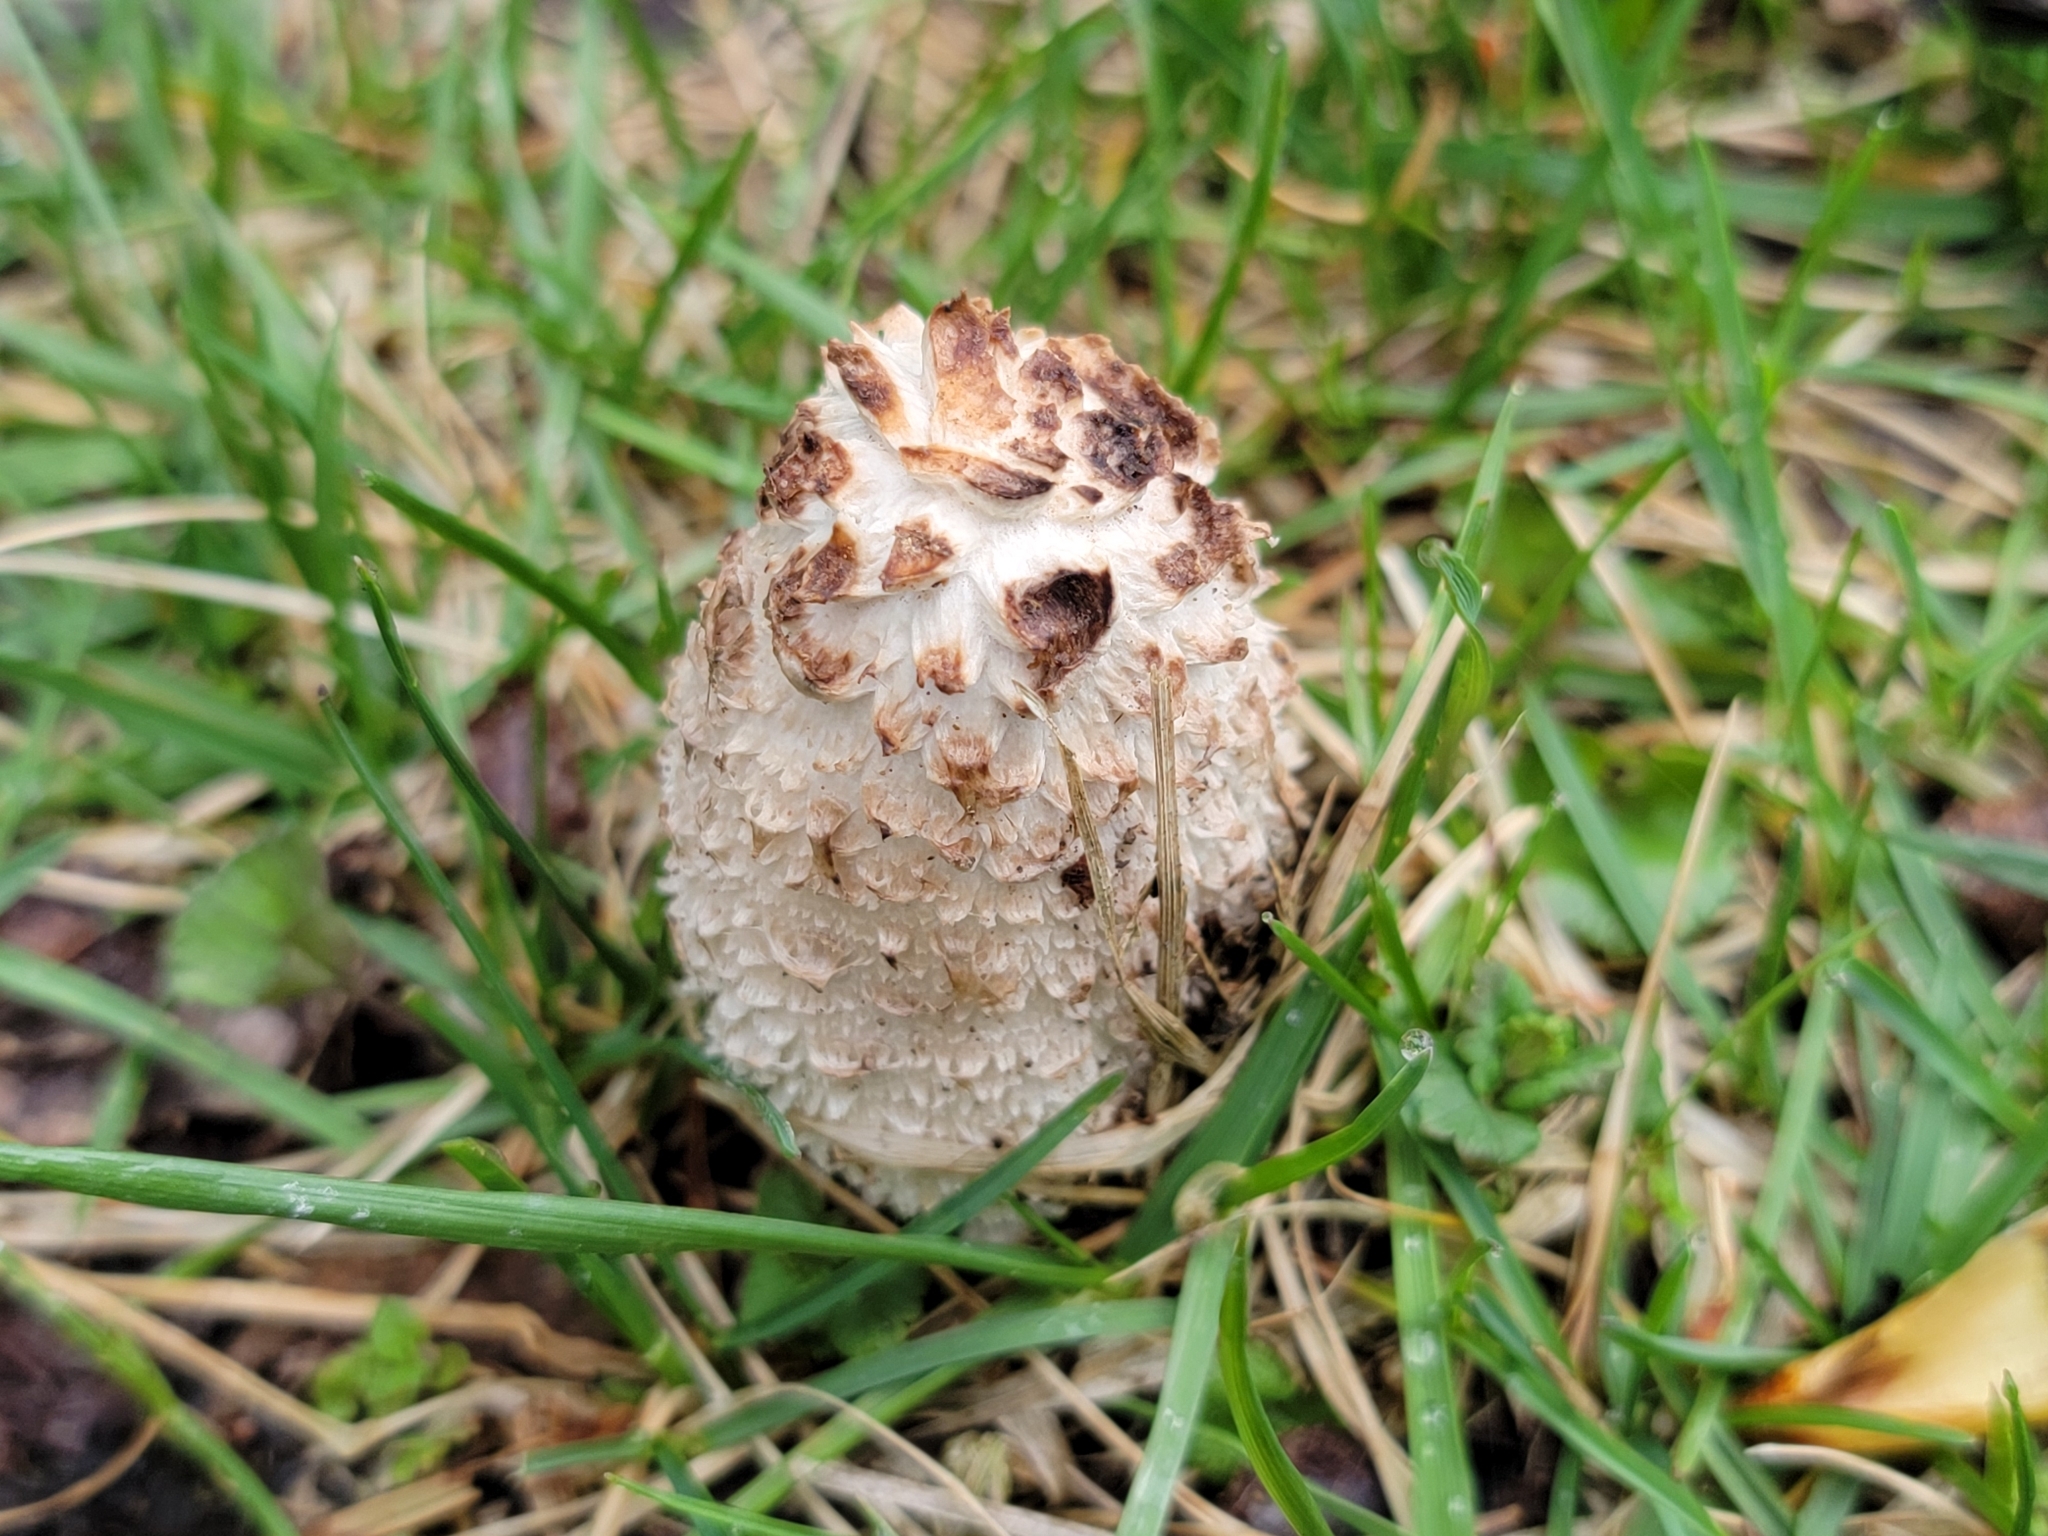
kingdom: Fungi
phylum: Basidiomycota
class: Agaricomycetes
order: Agaricales
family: Agaricaceae
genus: Coprinus
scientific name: Coprinus comatus
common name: Lawyer's wig
